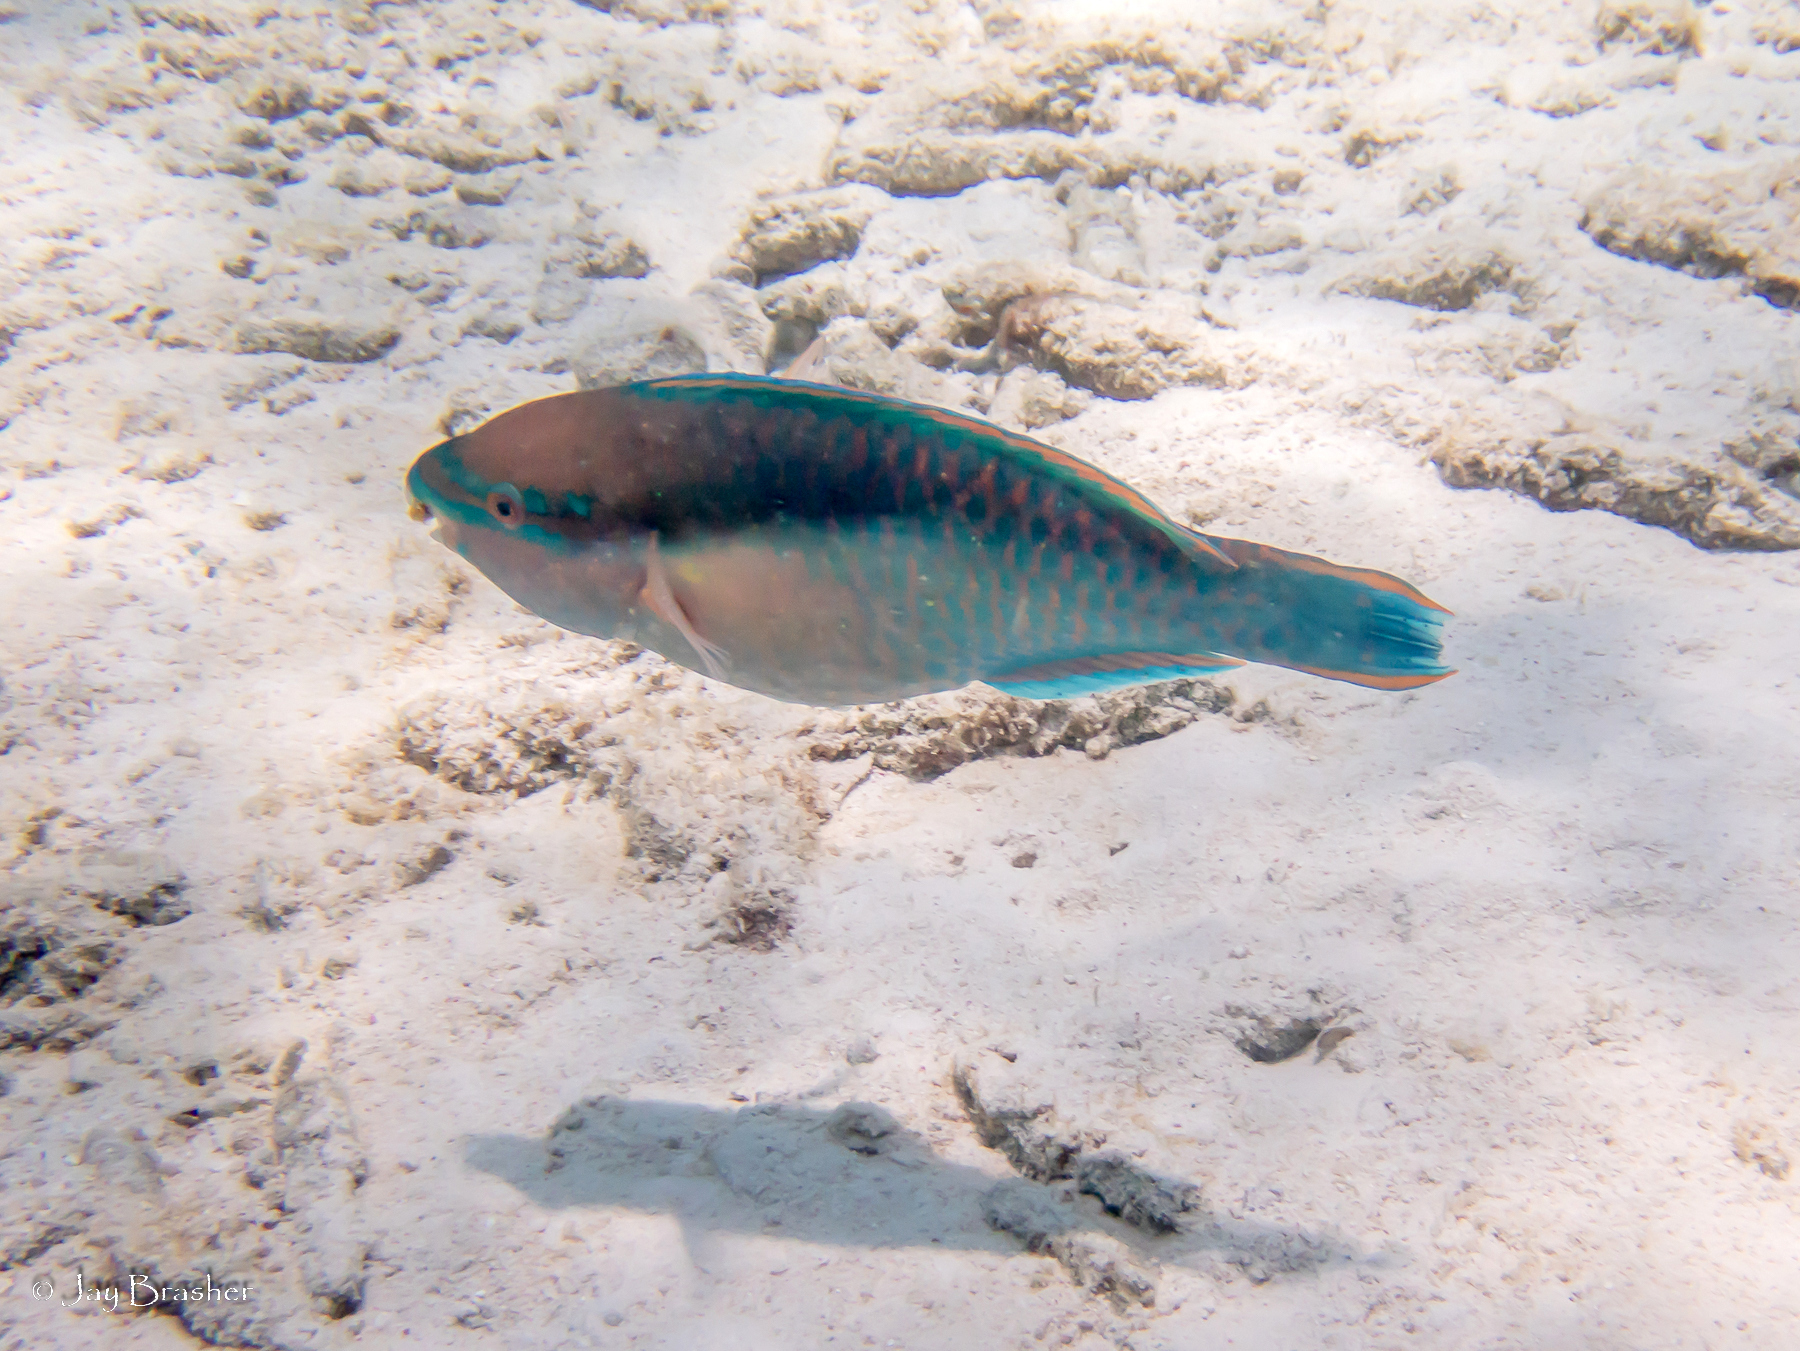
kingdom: Animalia
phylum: Chordata
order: Perciformes
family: Scaridae
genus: Scarus
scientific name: Scarus taeniopterus
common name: Princess parrotfish
